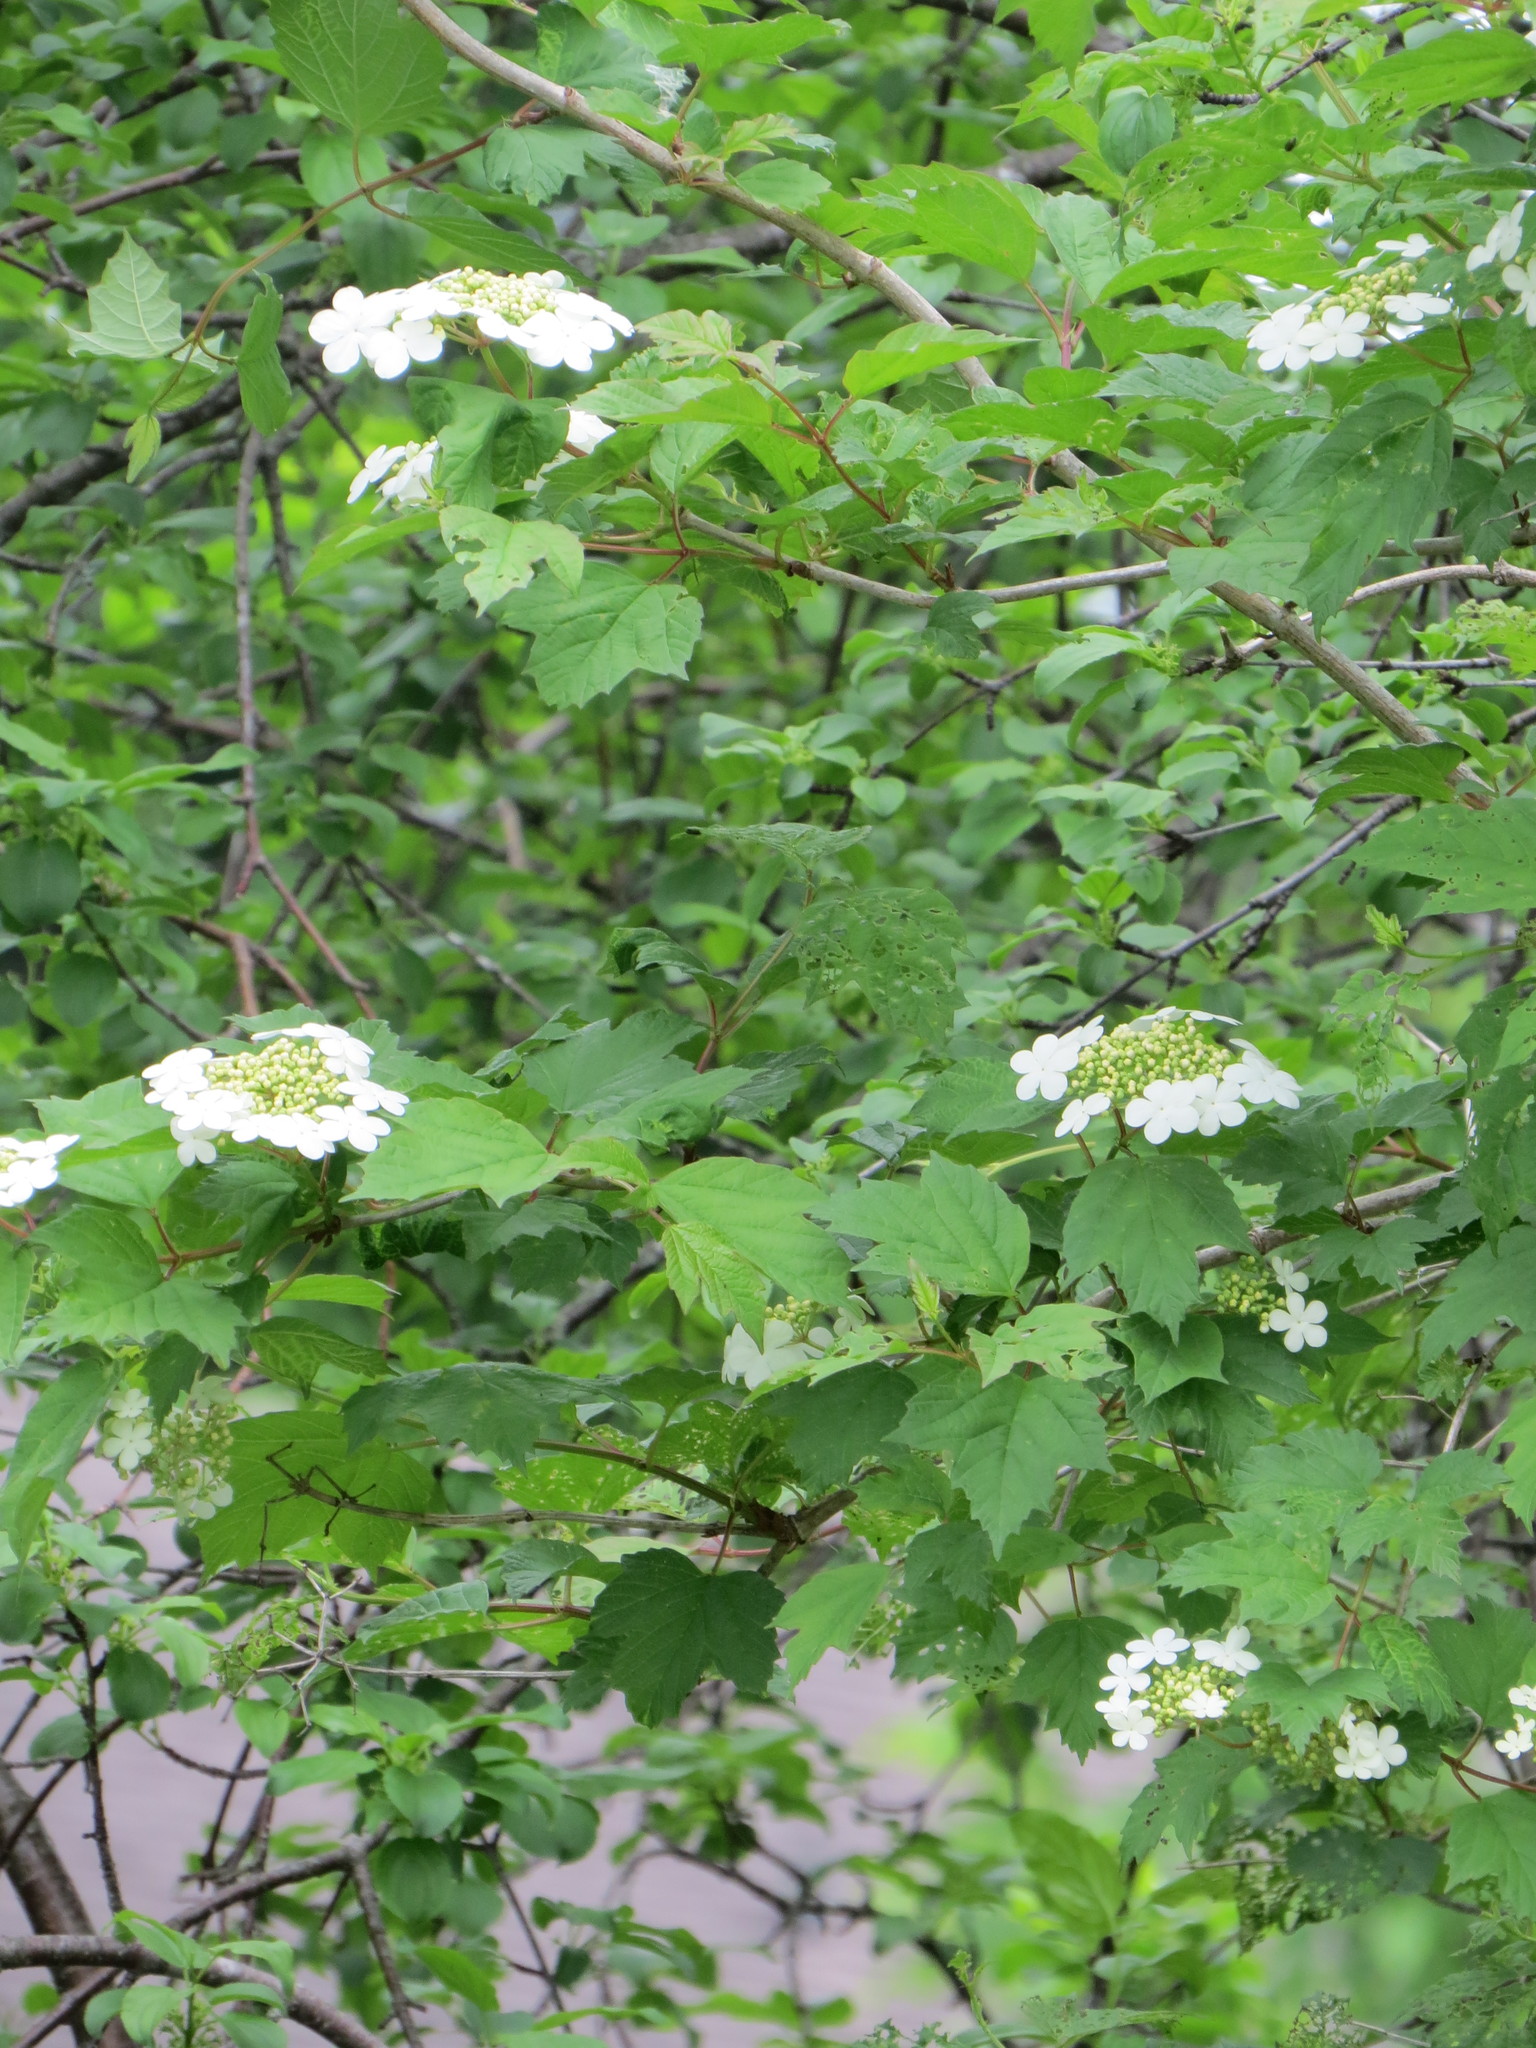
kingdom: Plantae
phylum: Tracheophyta
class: Magnoliopsida
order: Dipsacales
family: Viburnaceae
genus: Viburnum
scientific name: Viburnum opulus
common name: Guelder-rose
